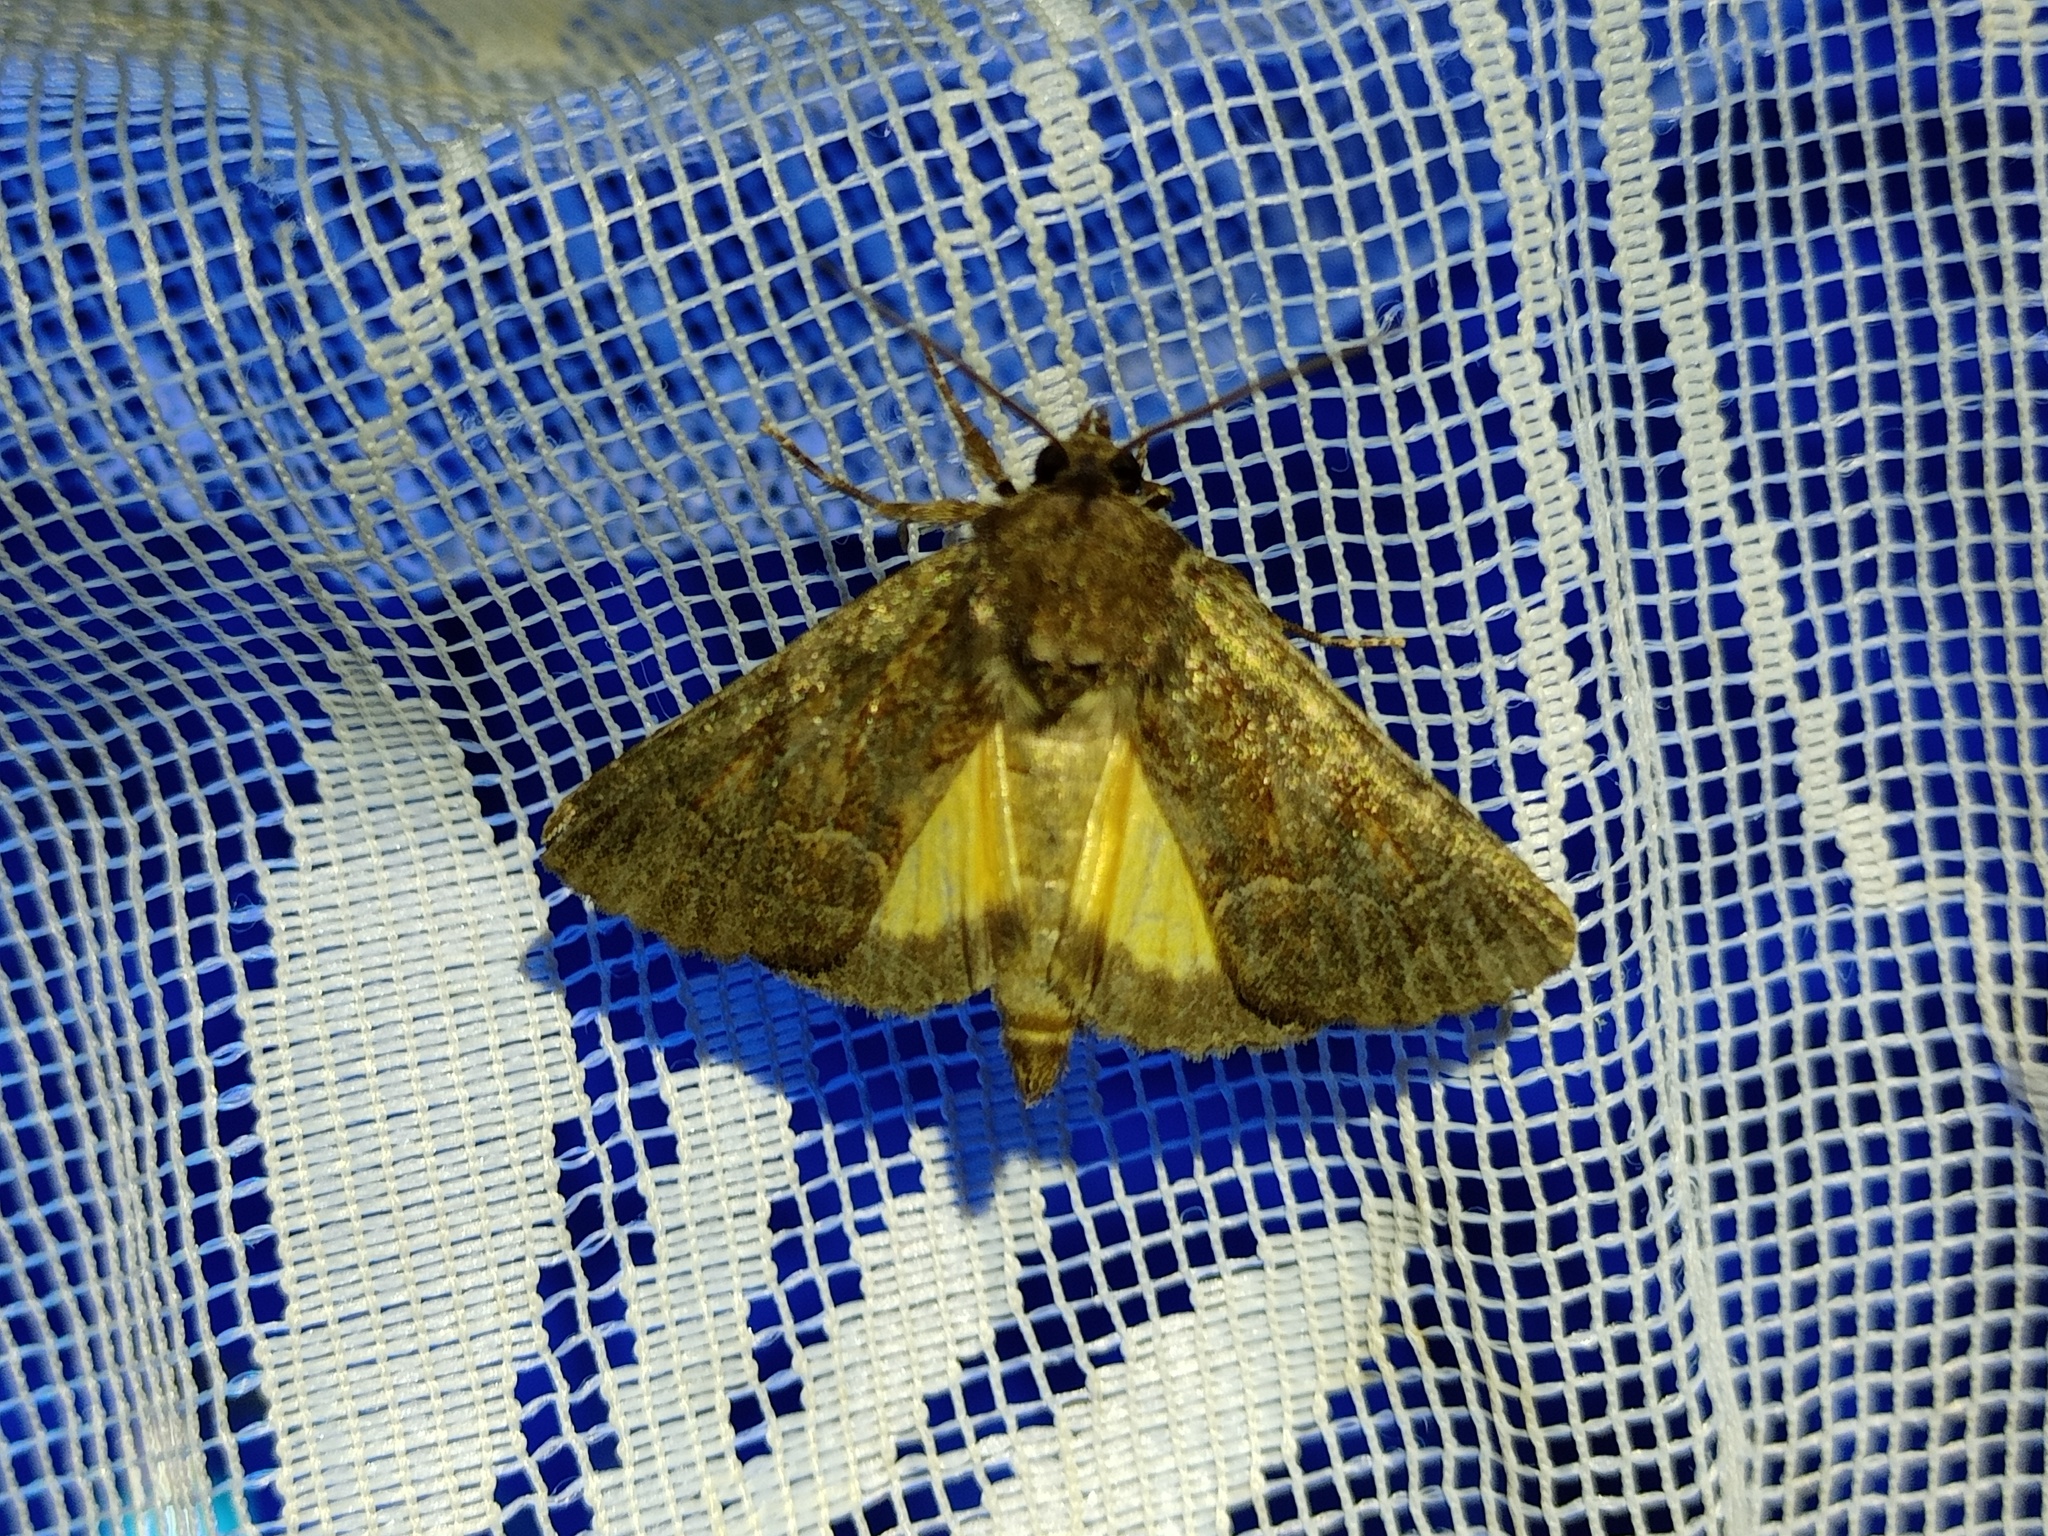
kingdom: Animalia
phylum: Arthropoda
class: Insecta
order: Lepidoptera
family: Noctuidae
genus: Thalpophila
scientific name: Thalpophila matura
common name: Straw underwing
